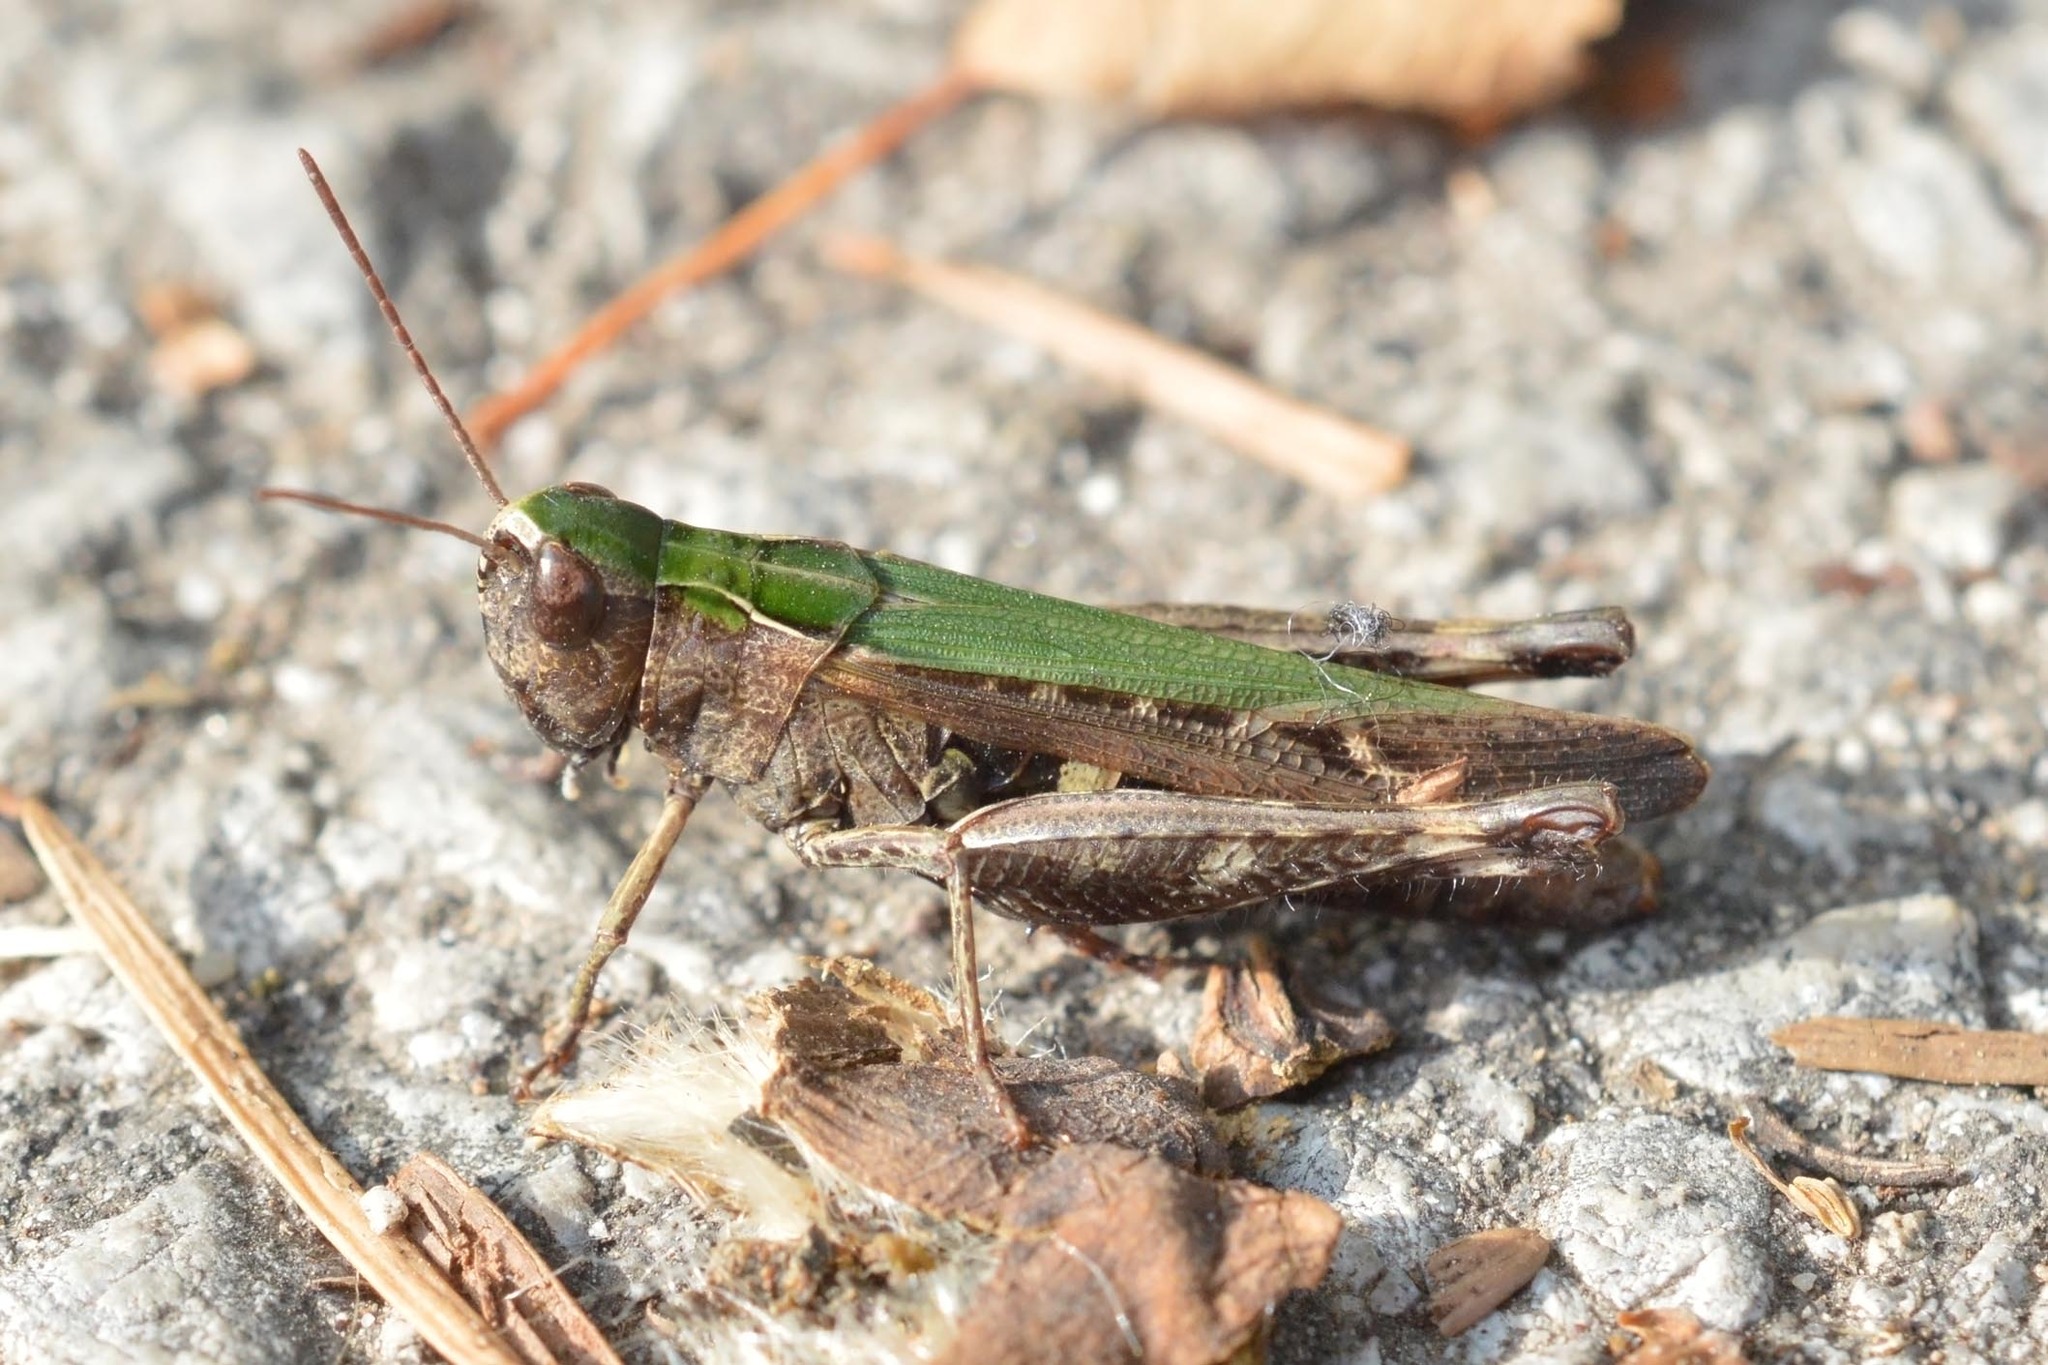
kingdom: Animalia
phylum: Arthropoda
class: Insecta
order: Orthoptera
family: Acrididae
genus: Omocestus
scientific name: Omocestus rufipes
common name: Woodland grasshopper
